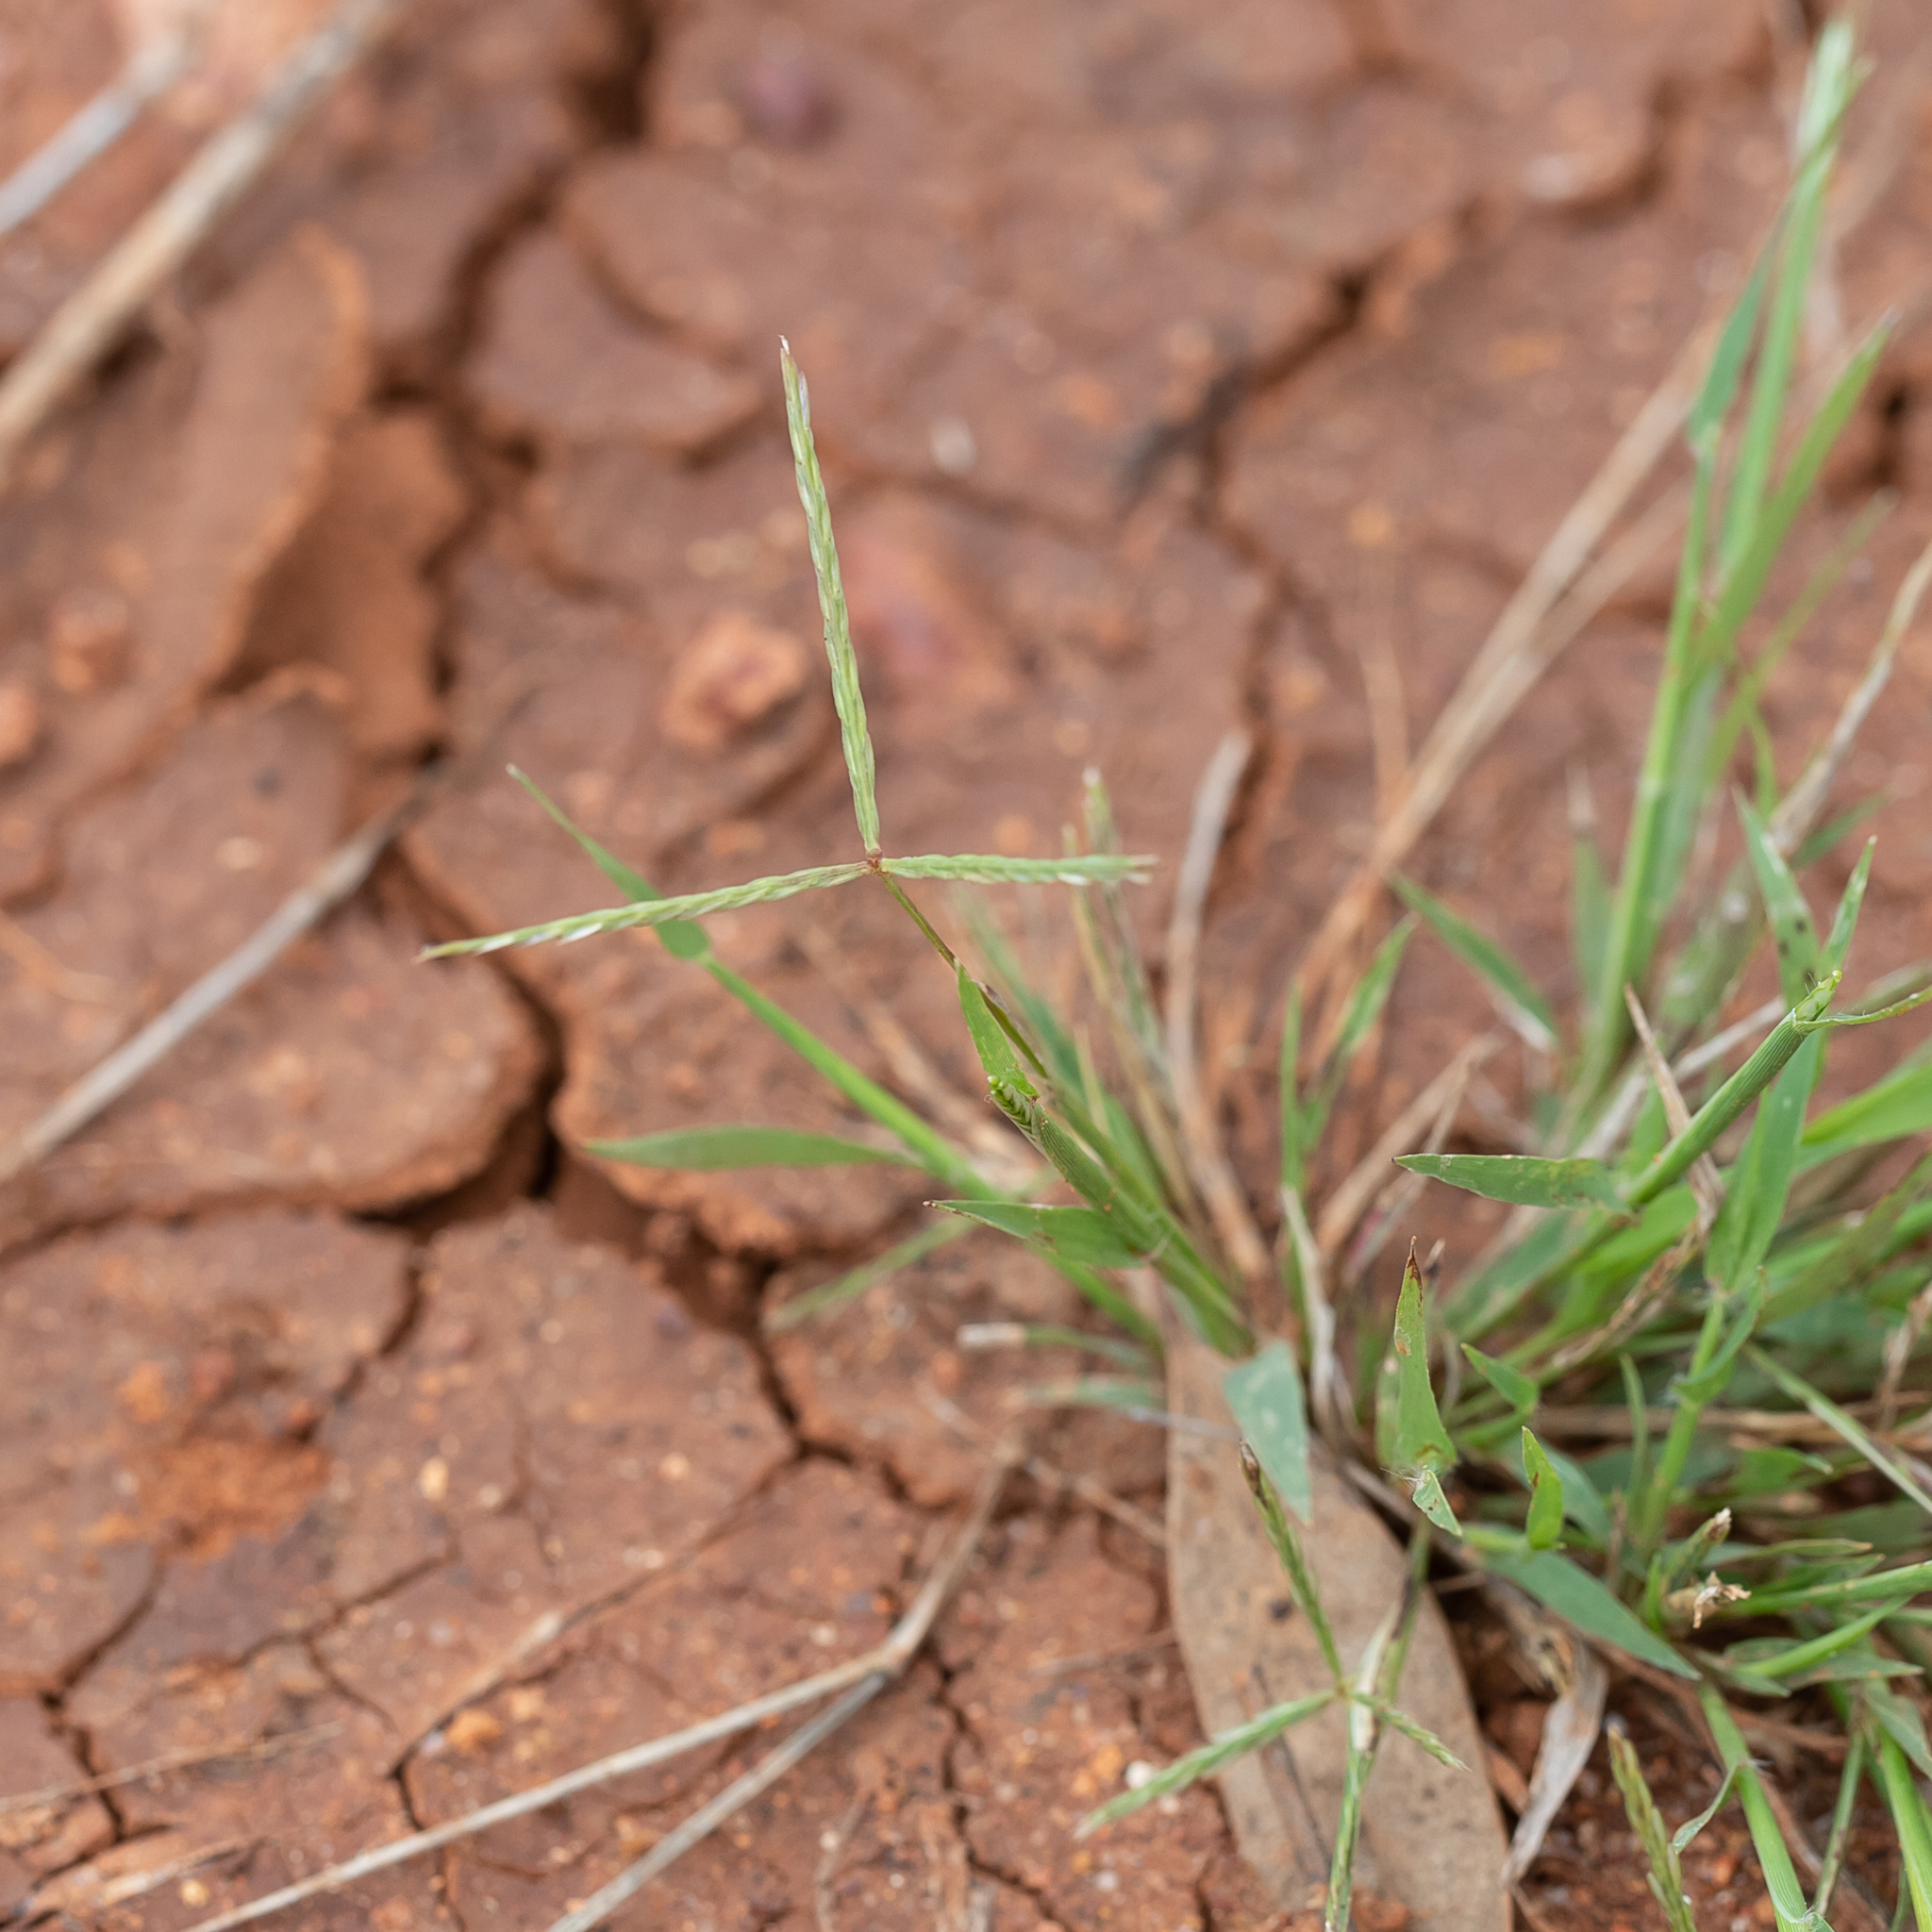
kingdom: Plantae
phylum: Tracheophyta
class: Liliopsida
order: Poales
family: Poaceae
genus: Cynodon
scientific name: Cynodon dactylon
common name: Bermuda grass
